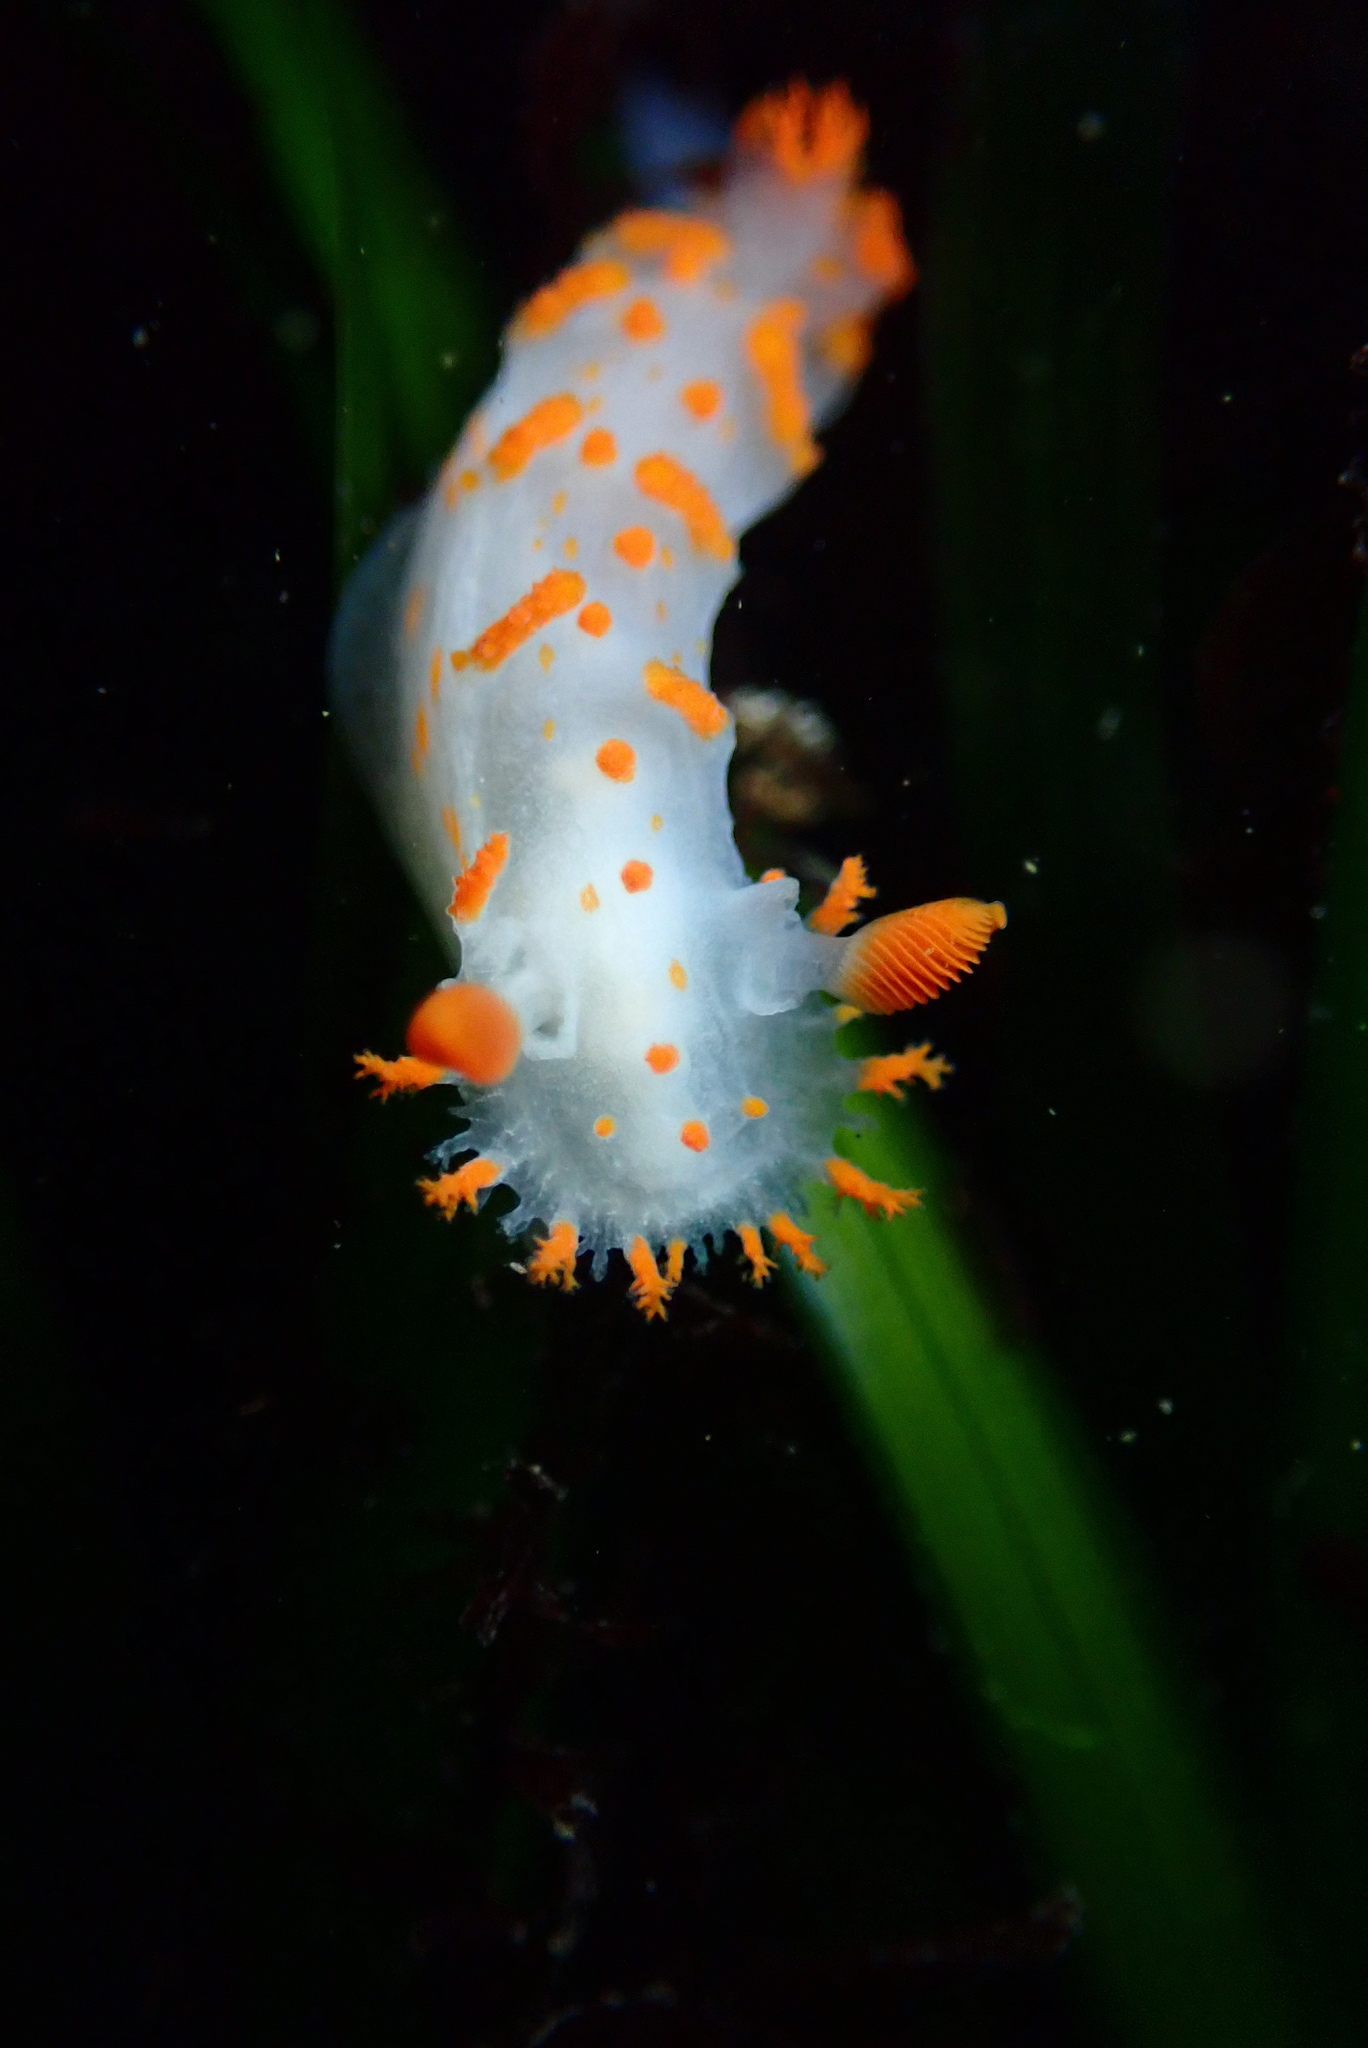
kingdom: Animalia
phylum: Mollusca
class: Gastropoda
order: Nudibranchia
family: Polyceridae
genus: Triopha
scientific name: Triopha catalinae
